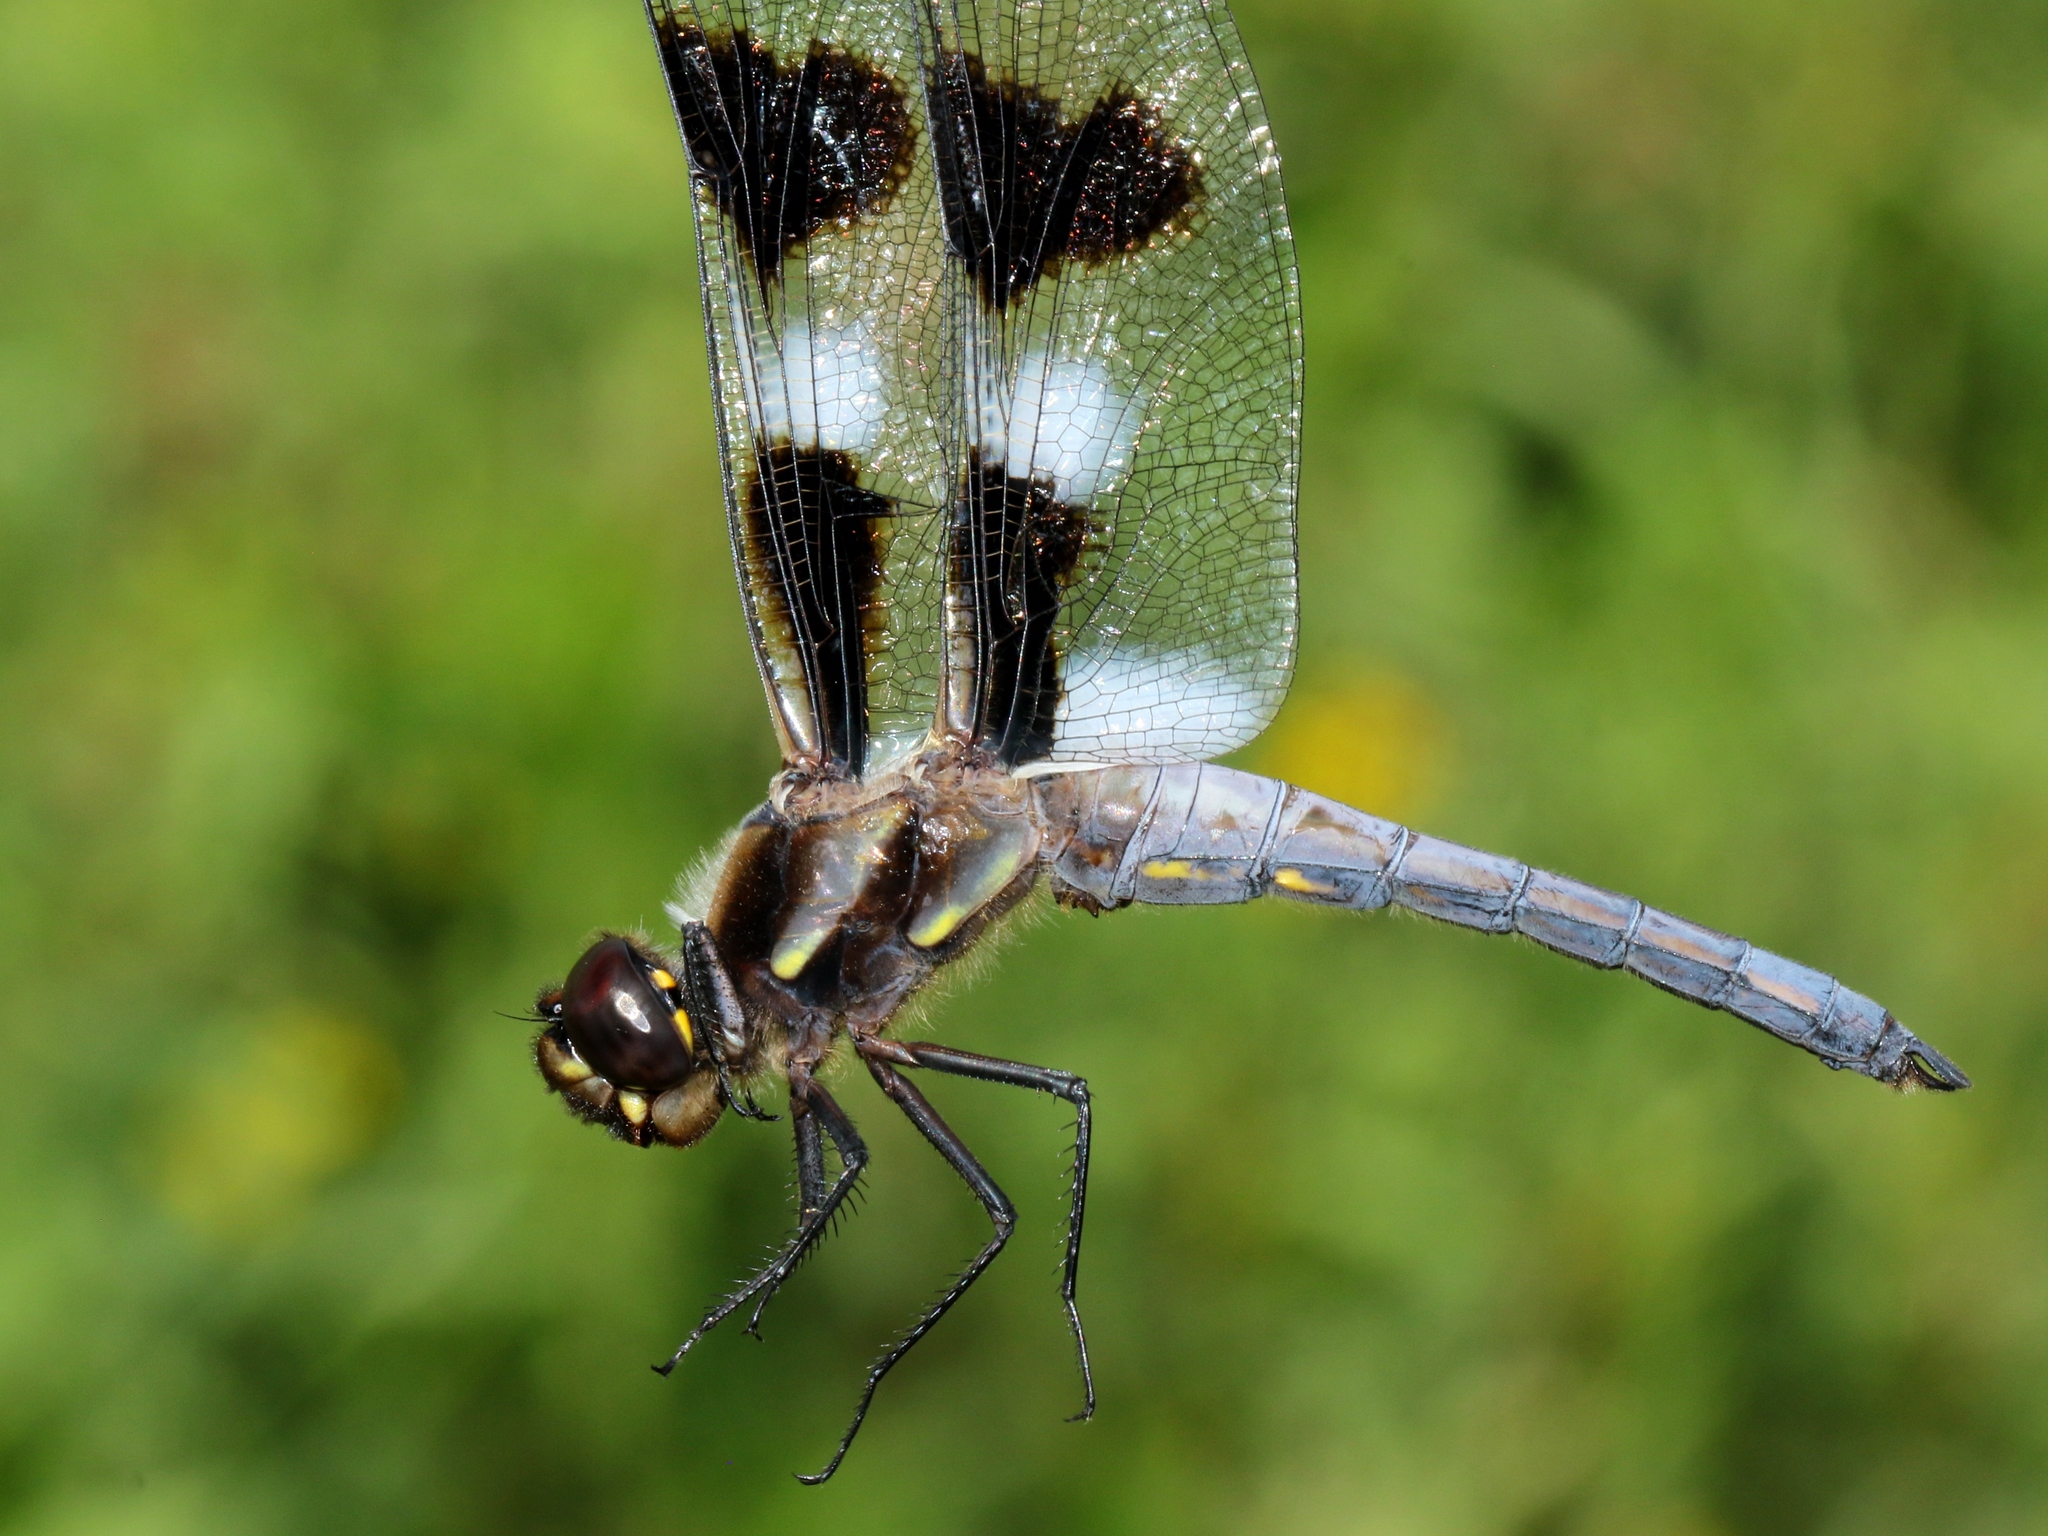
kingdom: Animalia
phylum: Arthropoda
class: Insecta
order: Odonata
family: Libellulidae
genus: Libellula
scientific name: Libellula pulchella
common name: Twelve-spotted skimmer
